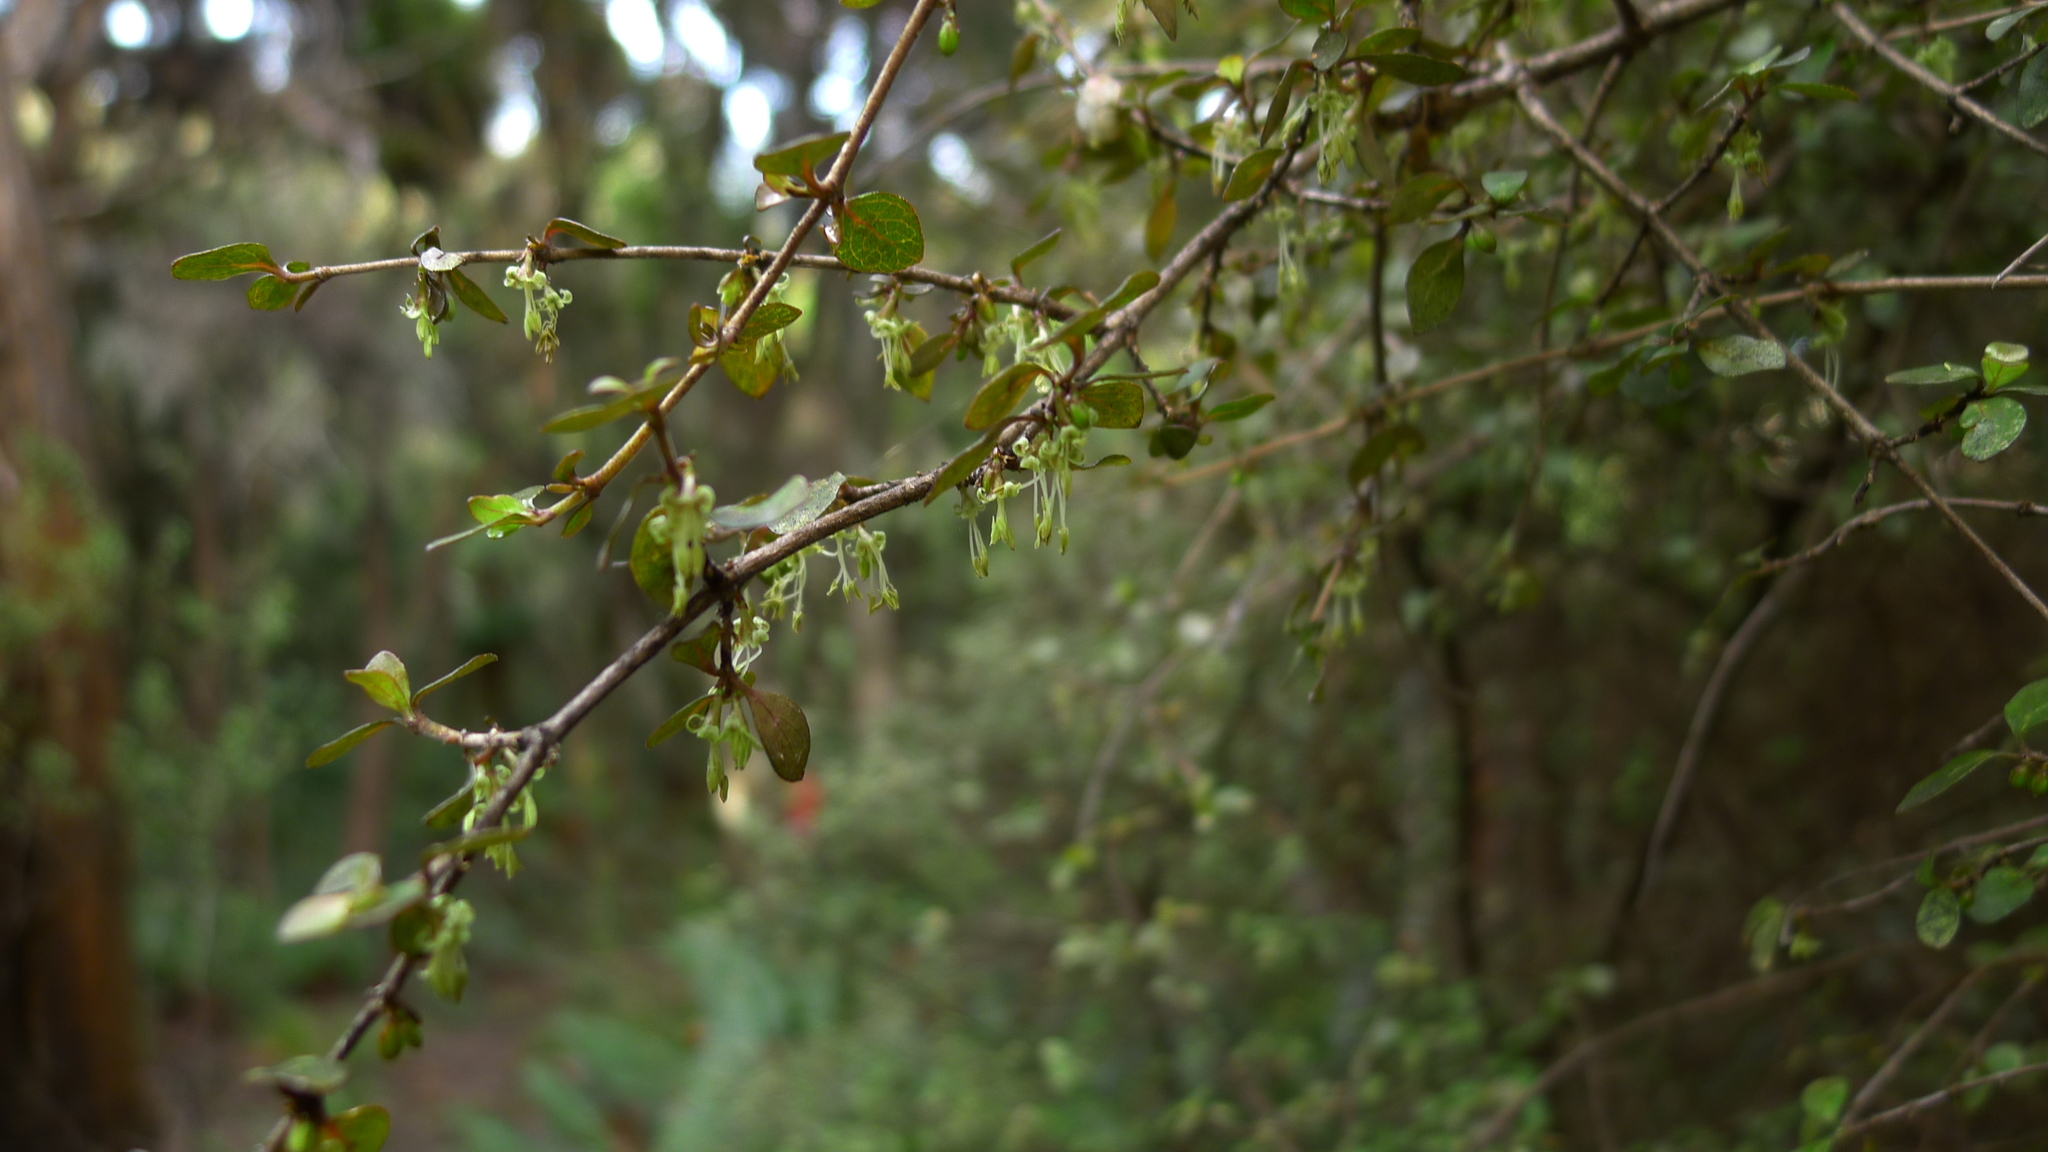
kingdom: Plantae
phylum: Tracheophyta
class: Magnoliopsida
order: Gentianales
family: Rubiaceae
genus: Coprosma
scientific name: Coprosma rhamnoides
